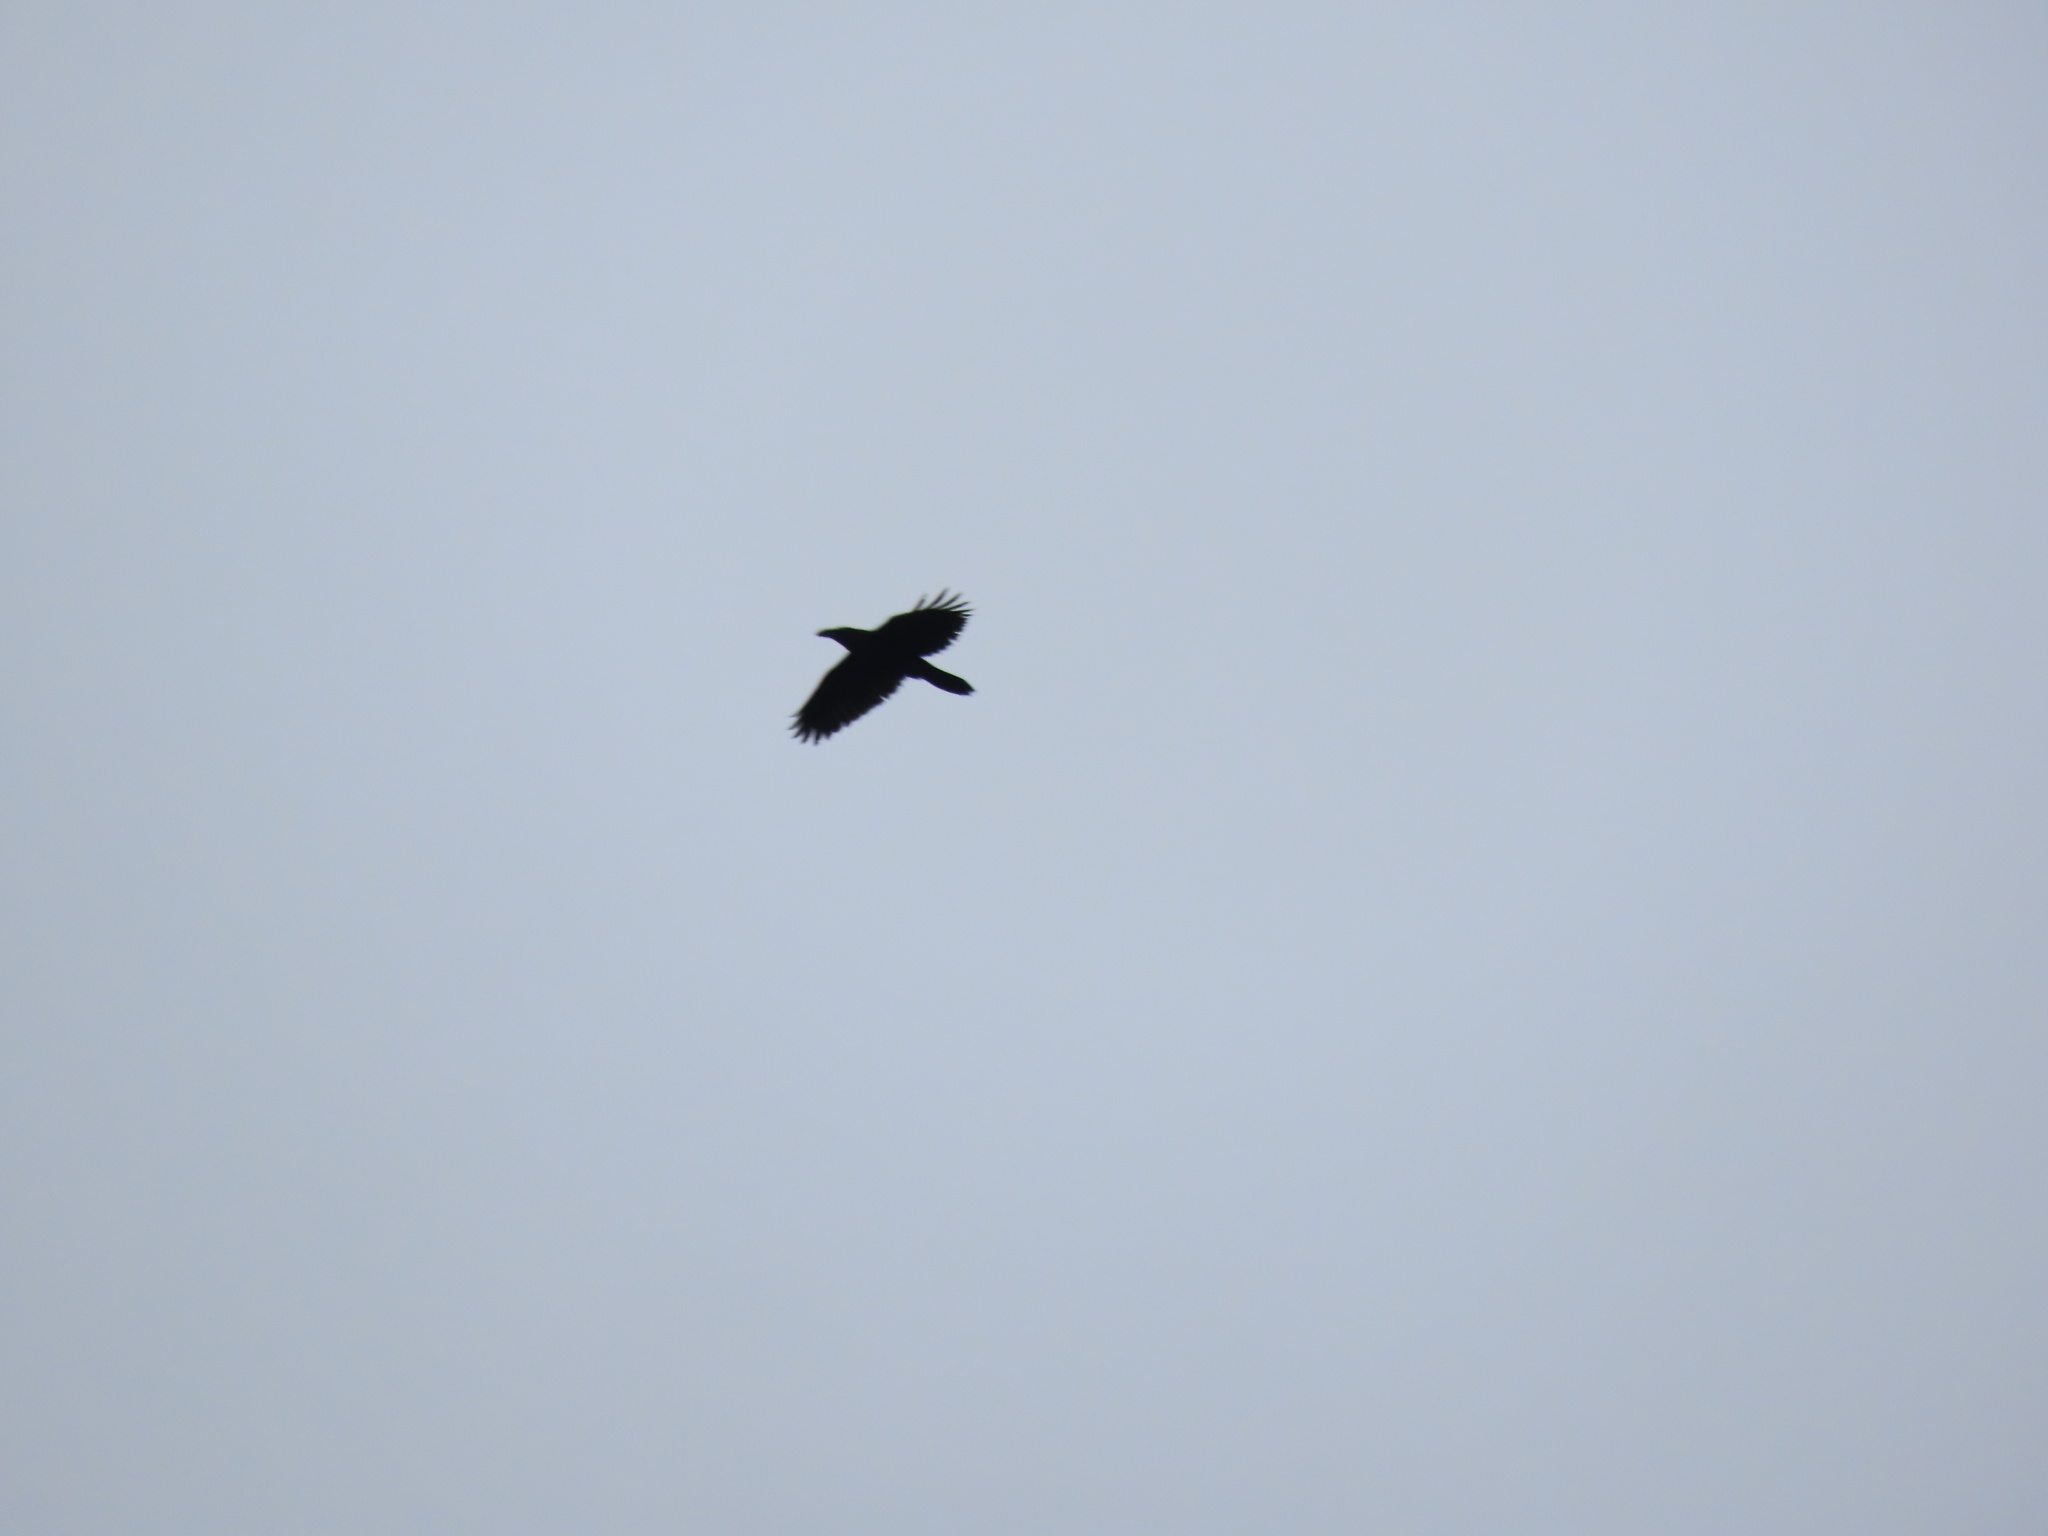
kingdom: Animalia
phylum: Chordata
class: Aves
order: Passeriformes
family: Corvidae
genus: Corvus
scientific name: Corvus corax
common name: Common raven
